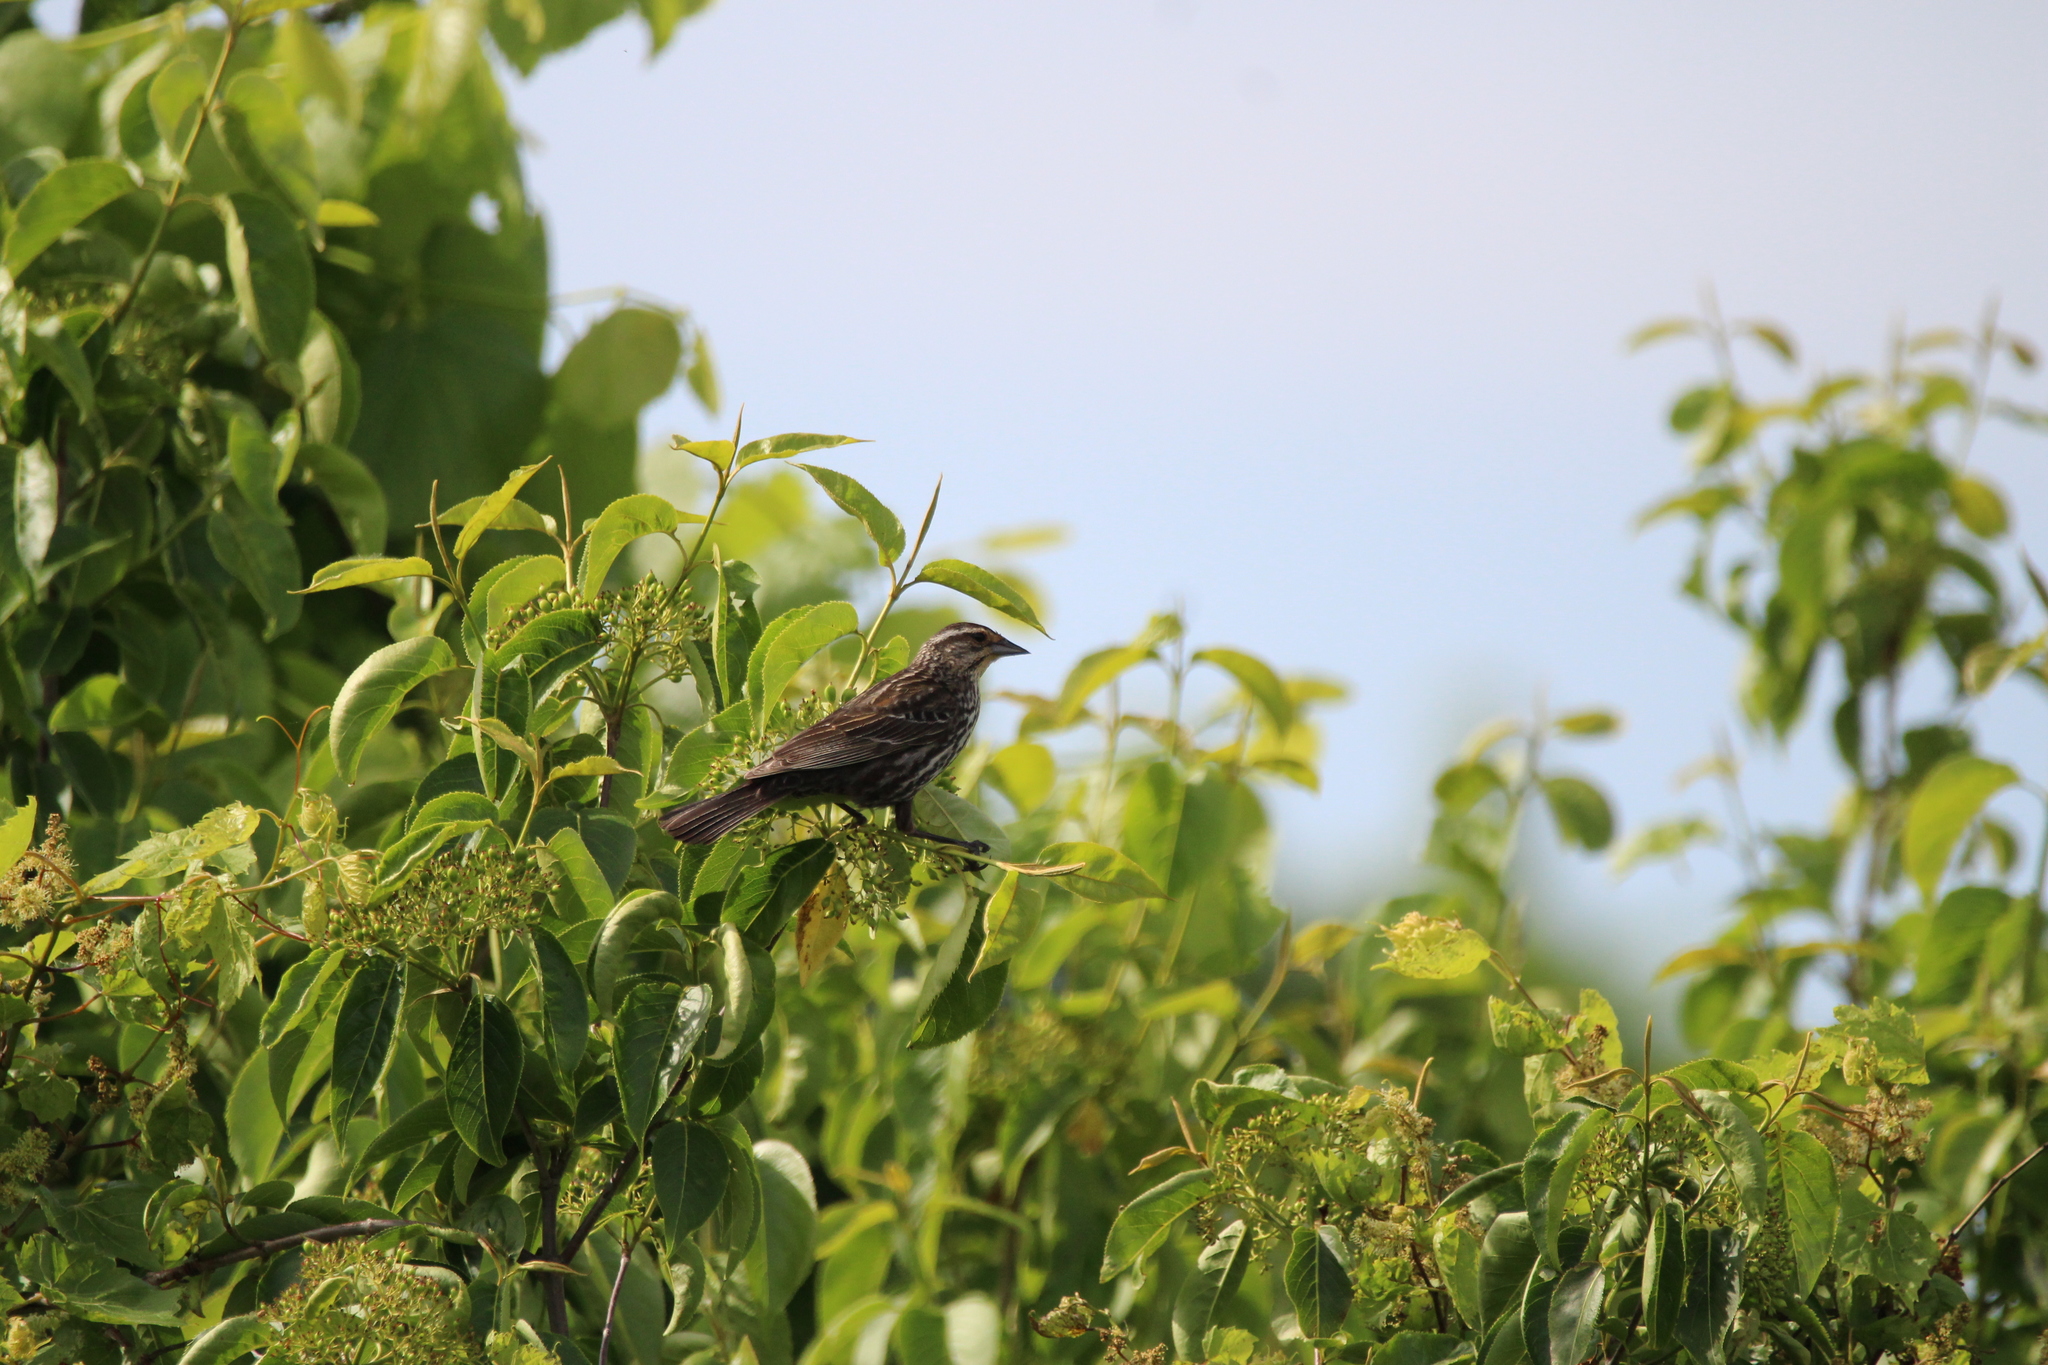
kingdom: Animalia
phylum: Chordata
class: Aves
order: Passeriformes
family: Icteridae
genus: Agelaius
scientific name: Agelaius phoeniceus
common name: Red-winged blackbird
